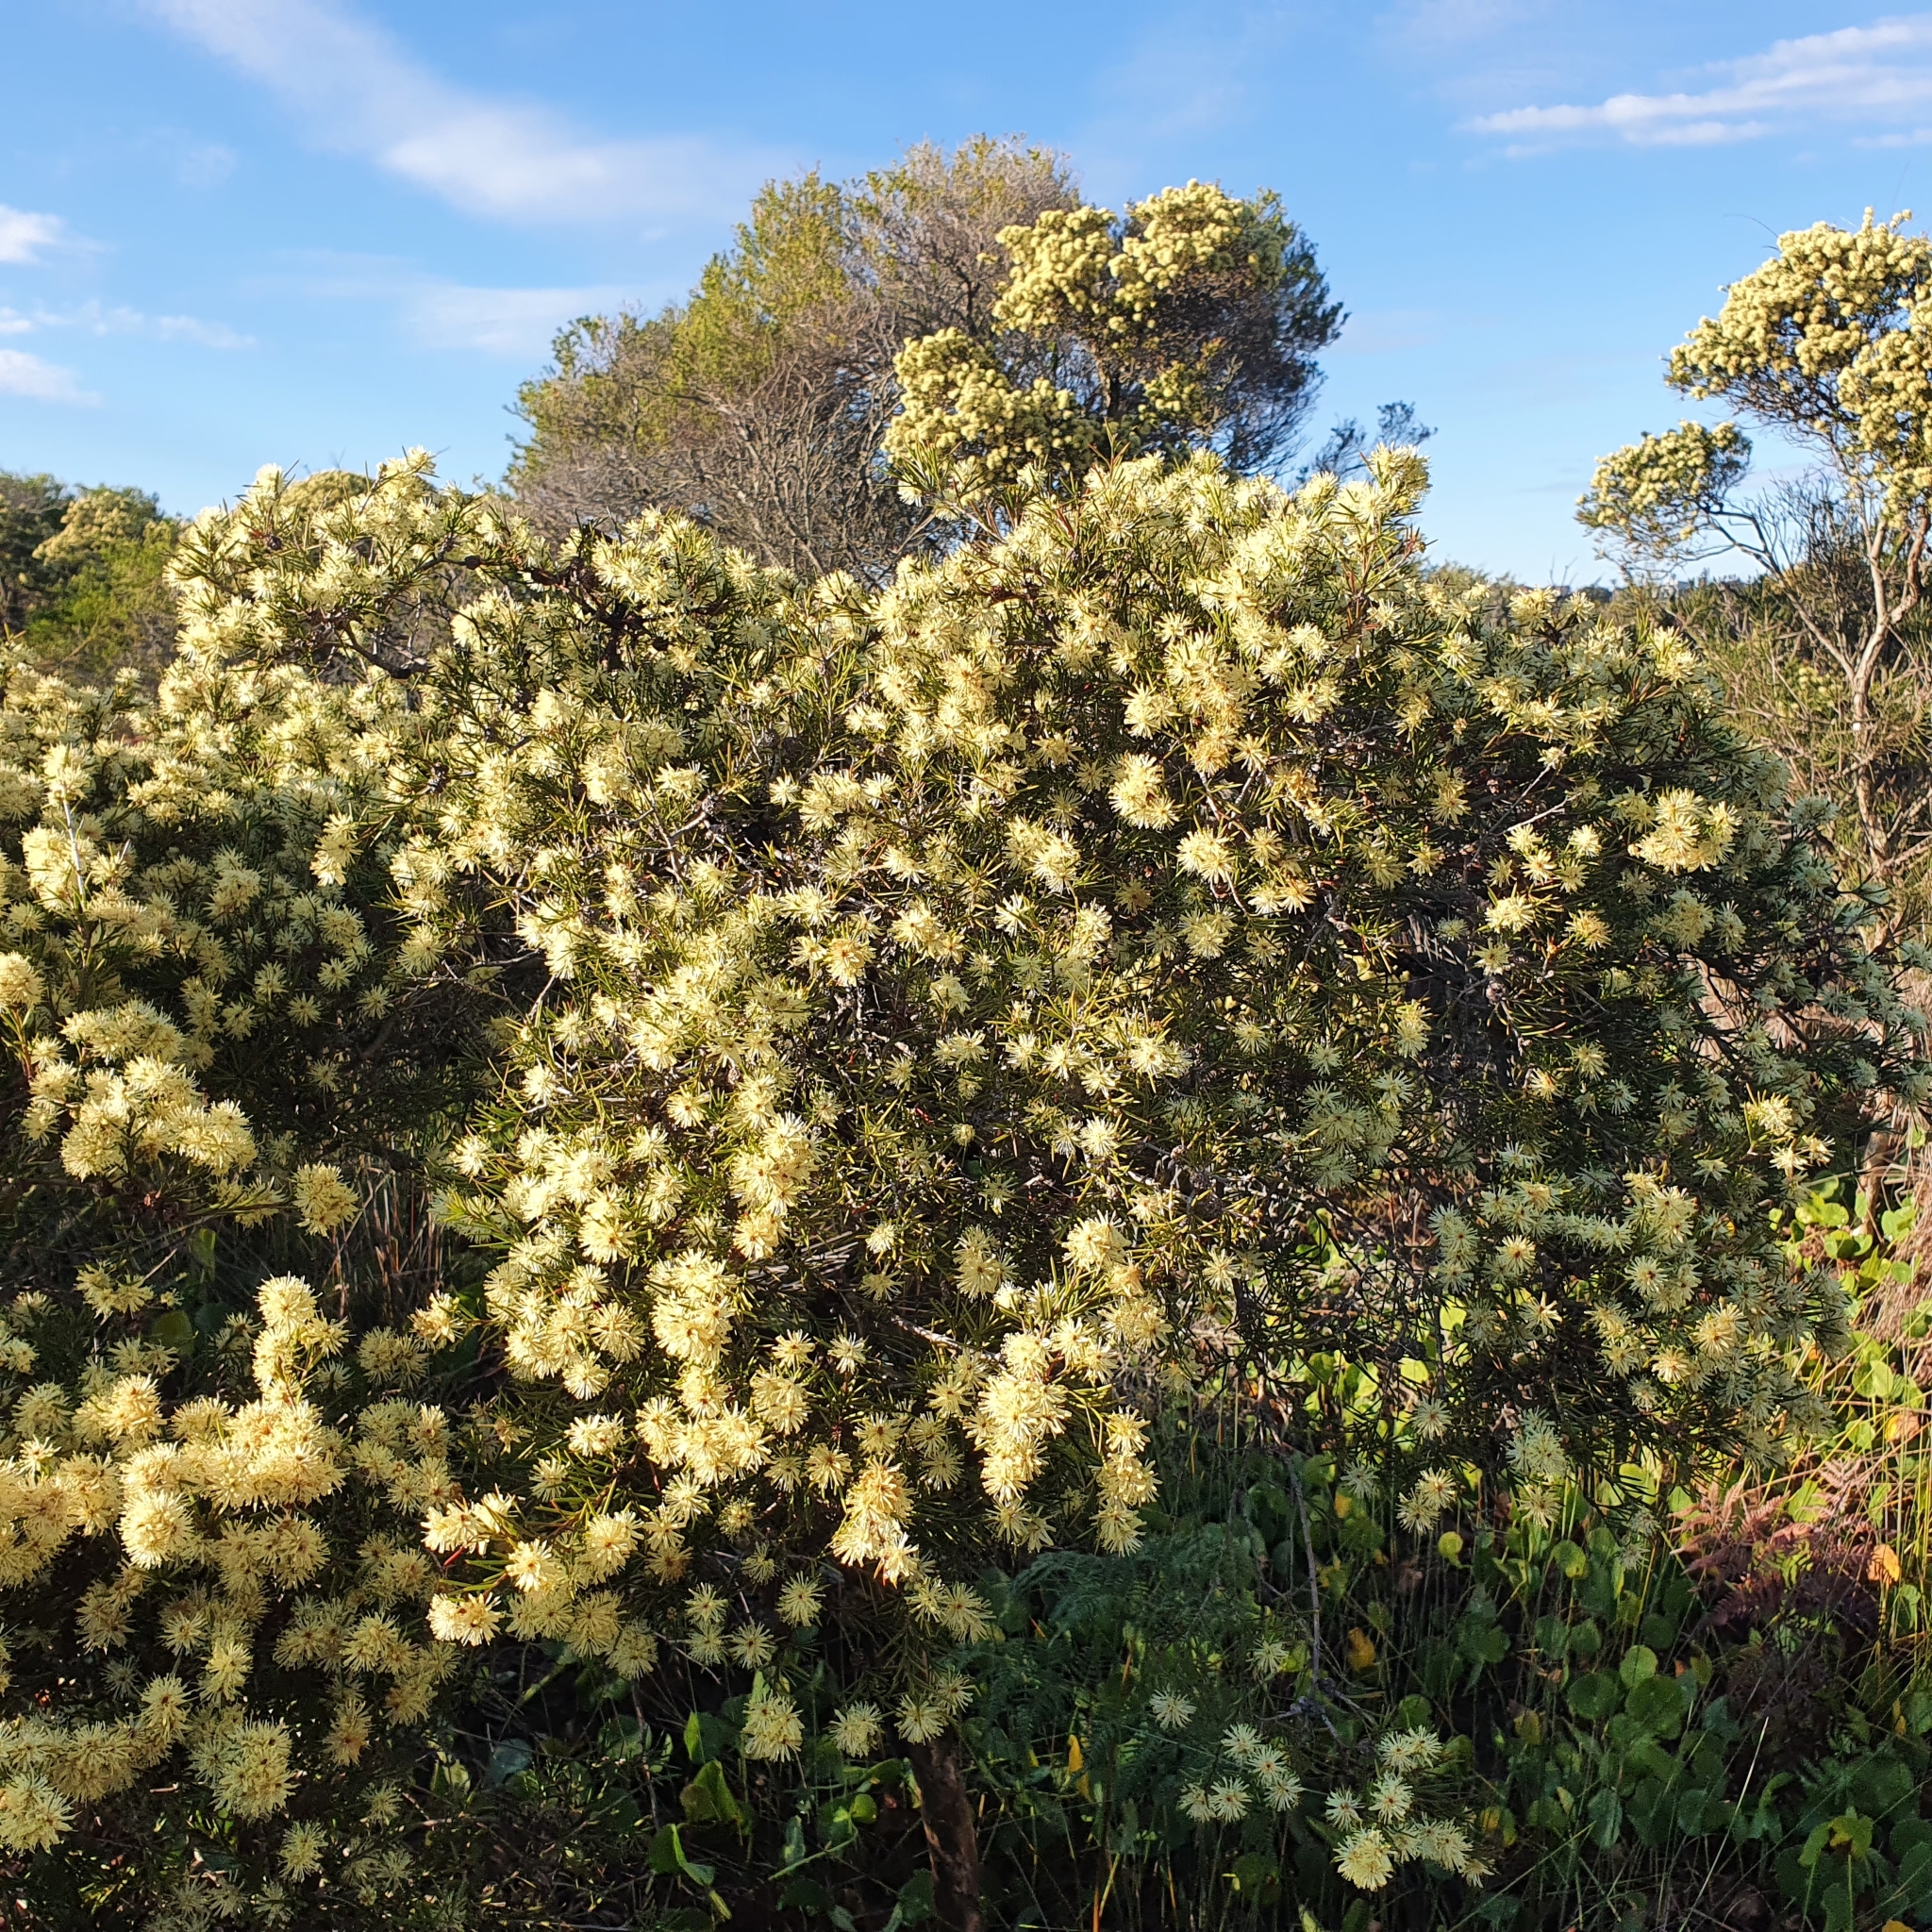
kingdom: Plantae
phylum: Tracheophyta
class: Magnoliopsida
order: Myrtales
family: Myrtaceae
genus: Melaleuca
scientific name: Melaleuca nodosa
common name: Prickly-leaf paperbark
